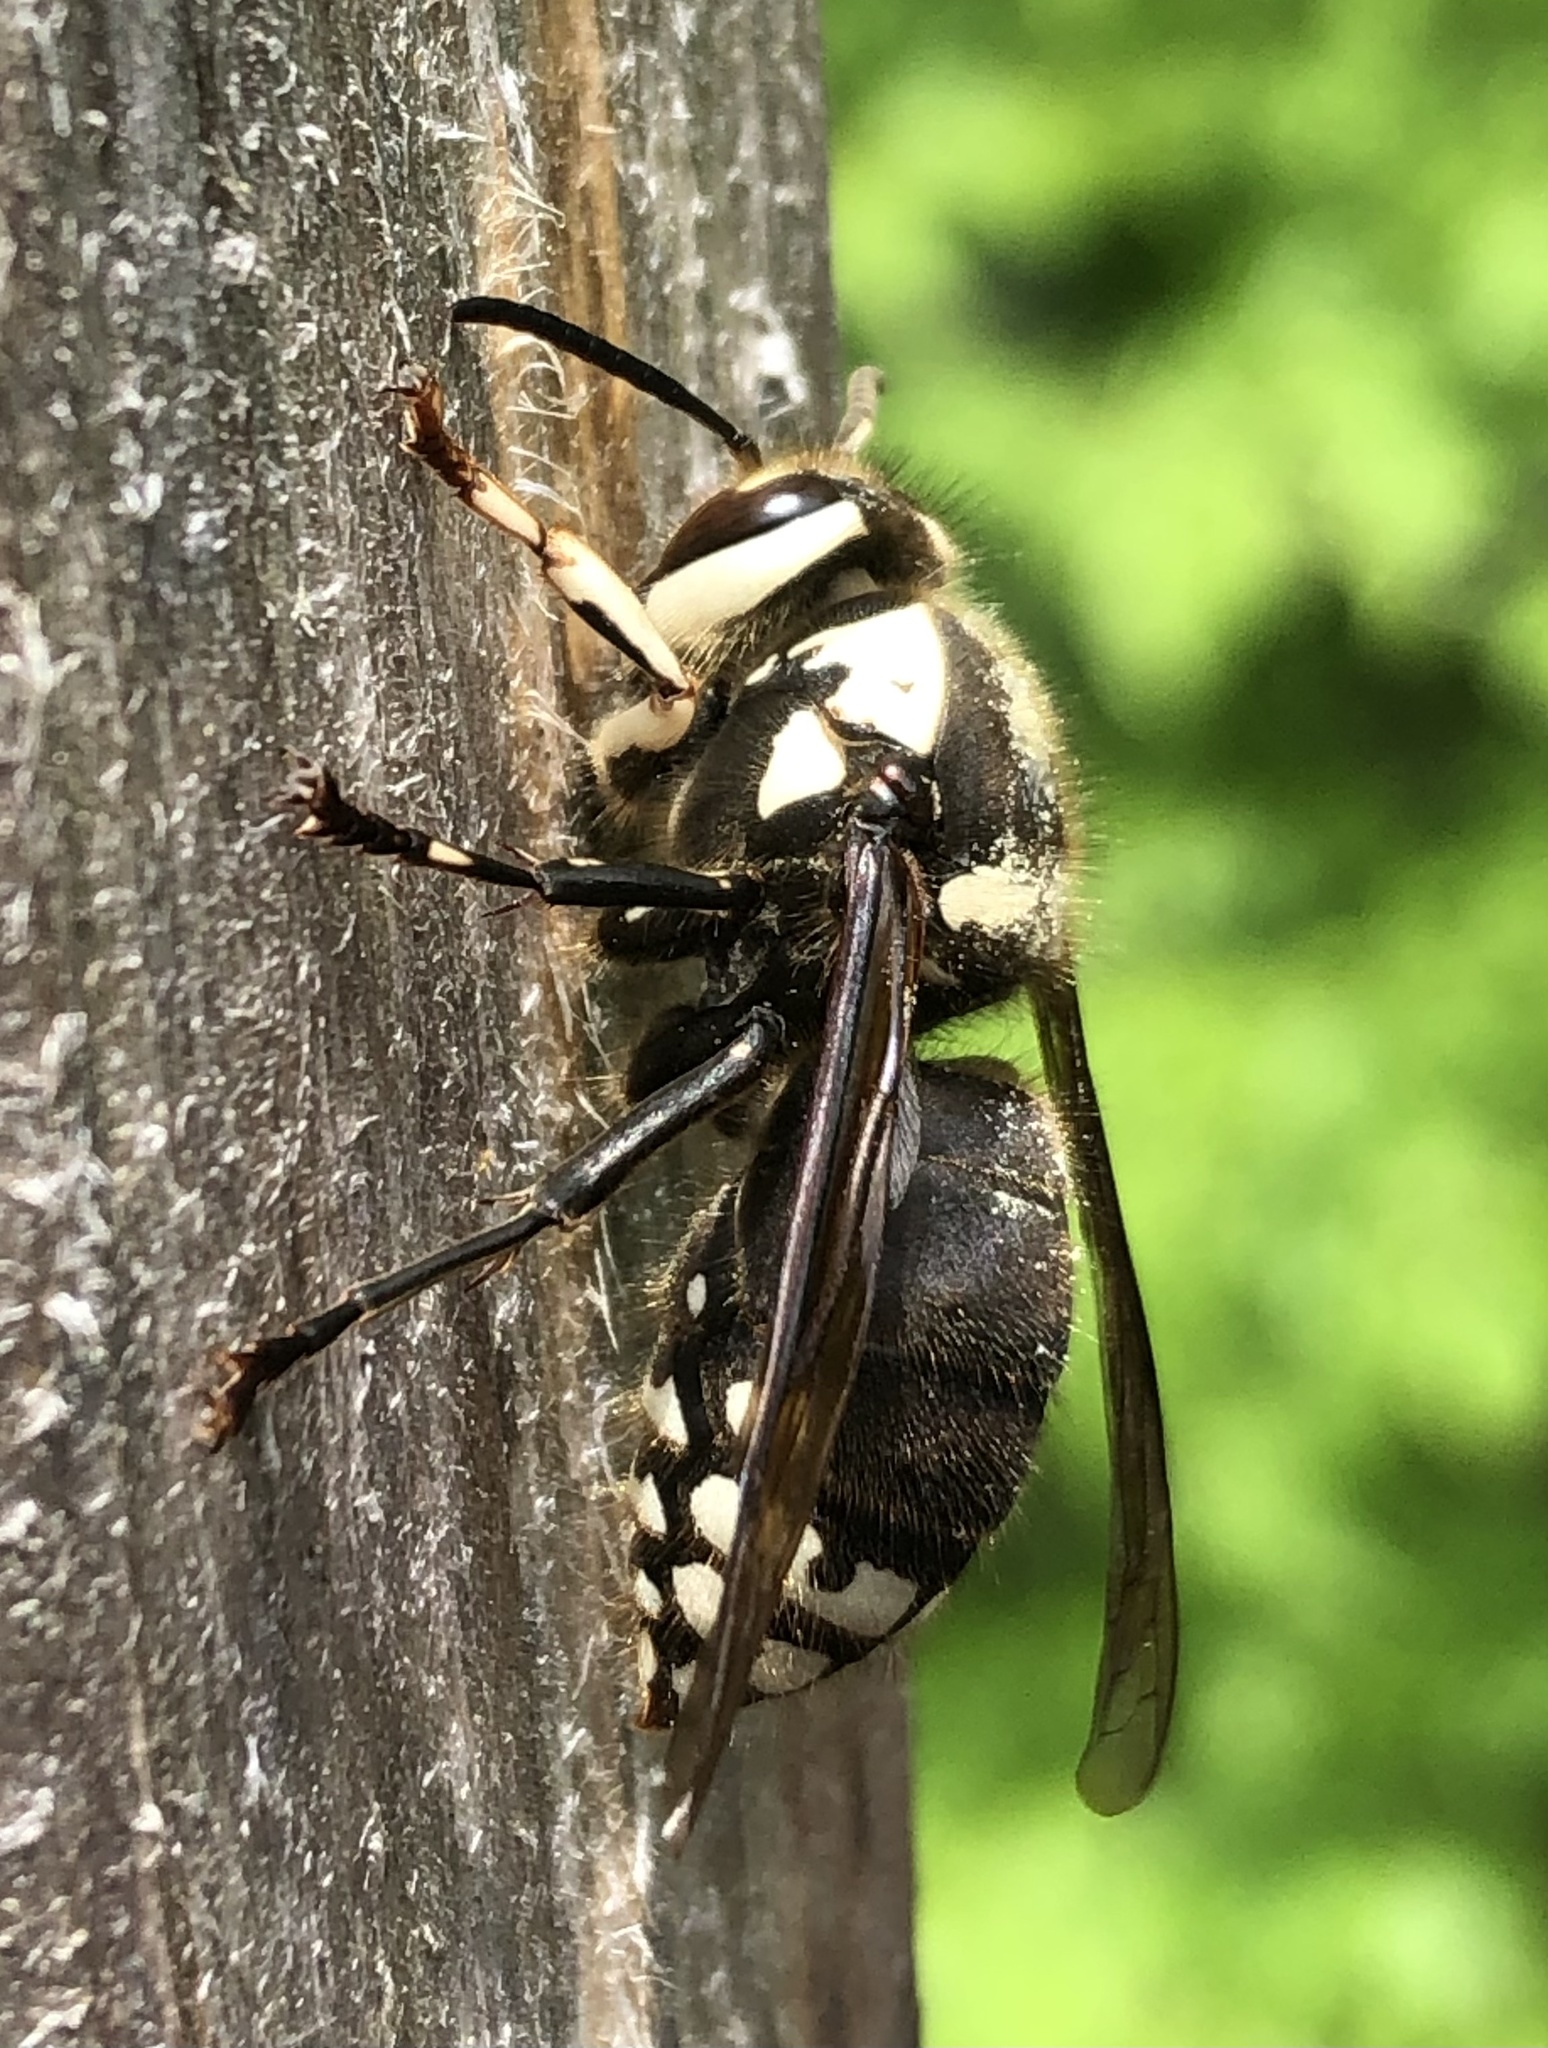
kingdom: Animalia
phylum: Arthropoda
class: Insecta
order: Hymenoptera
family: Vespidae
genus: Dolichovespula
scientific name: Dolichovespula maculata
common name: Bald-faced hornet
